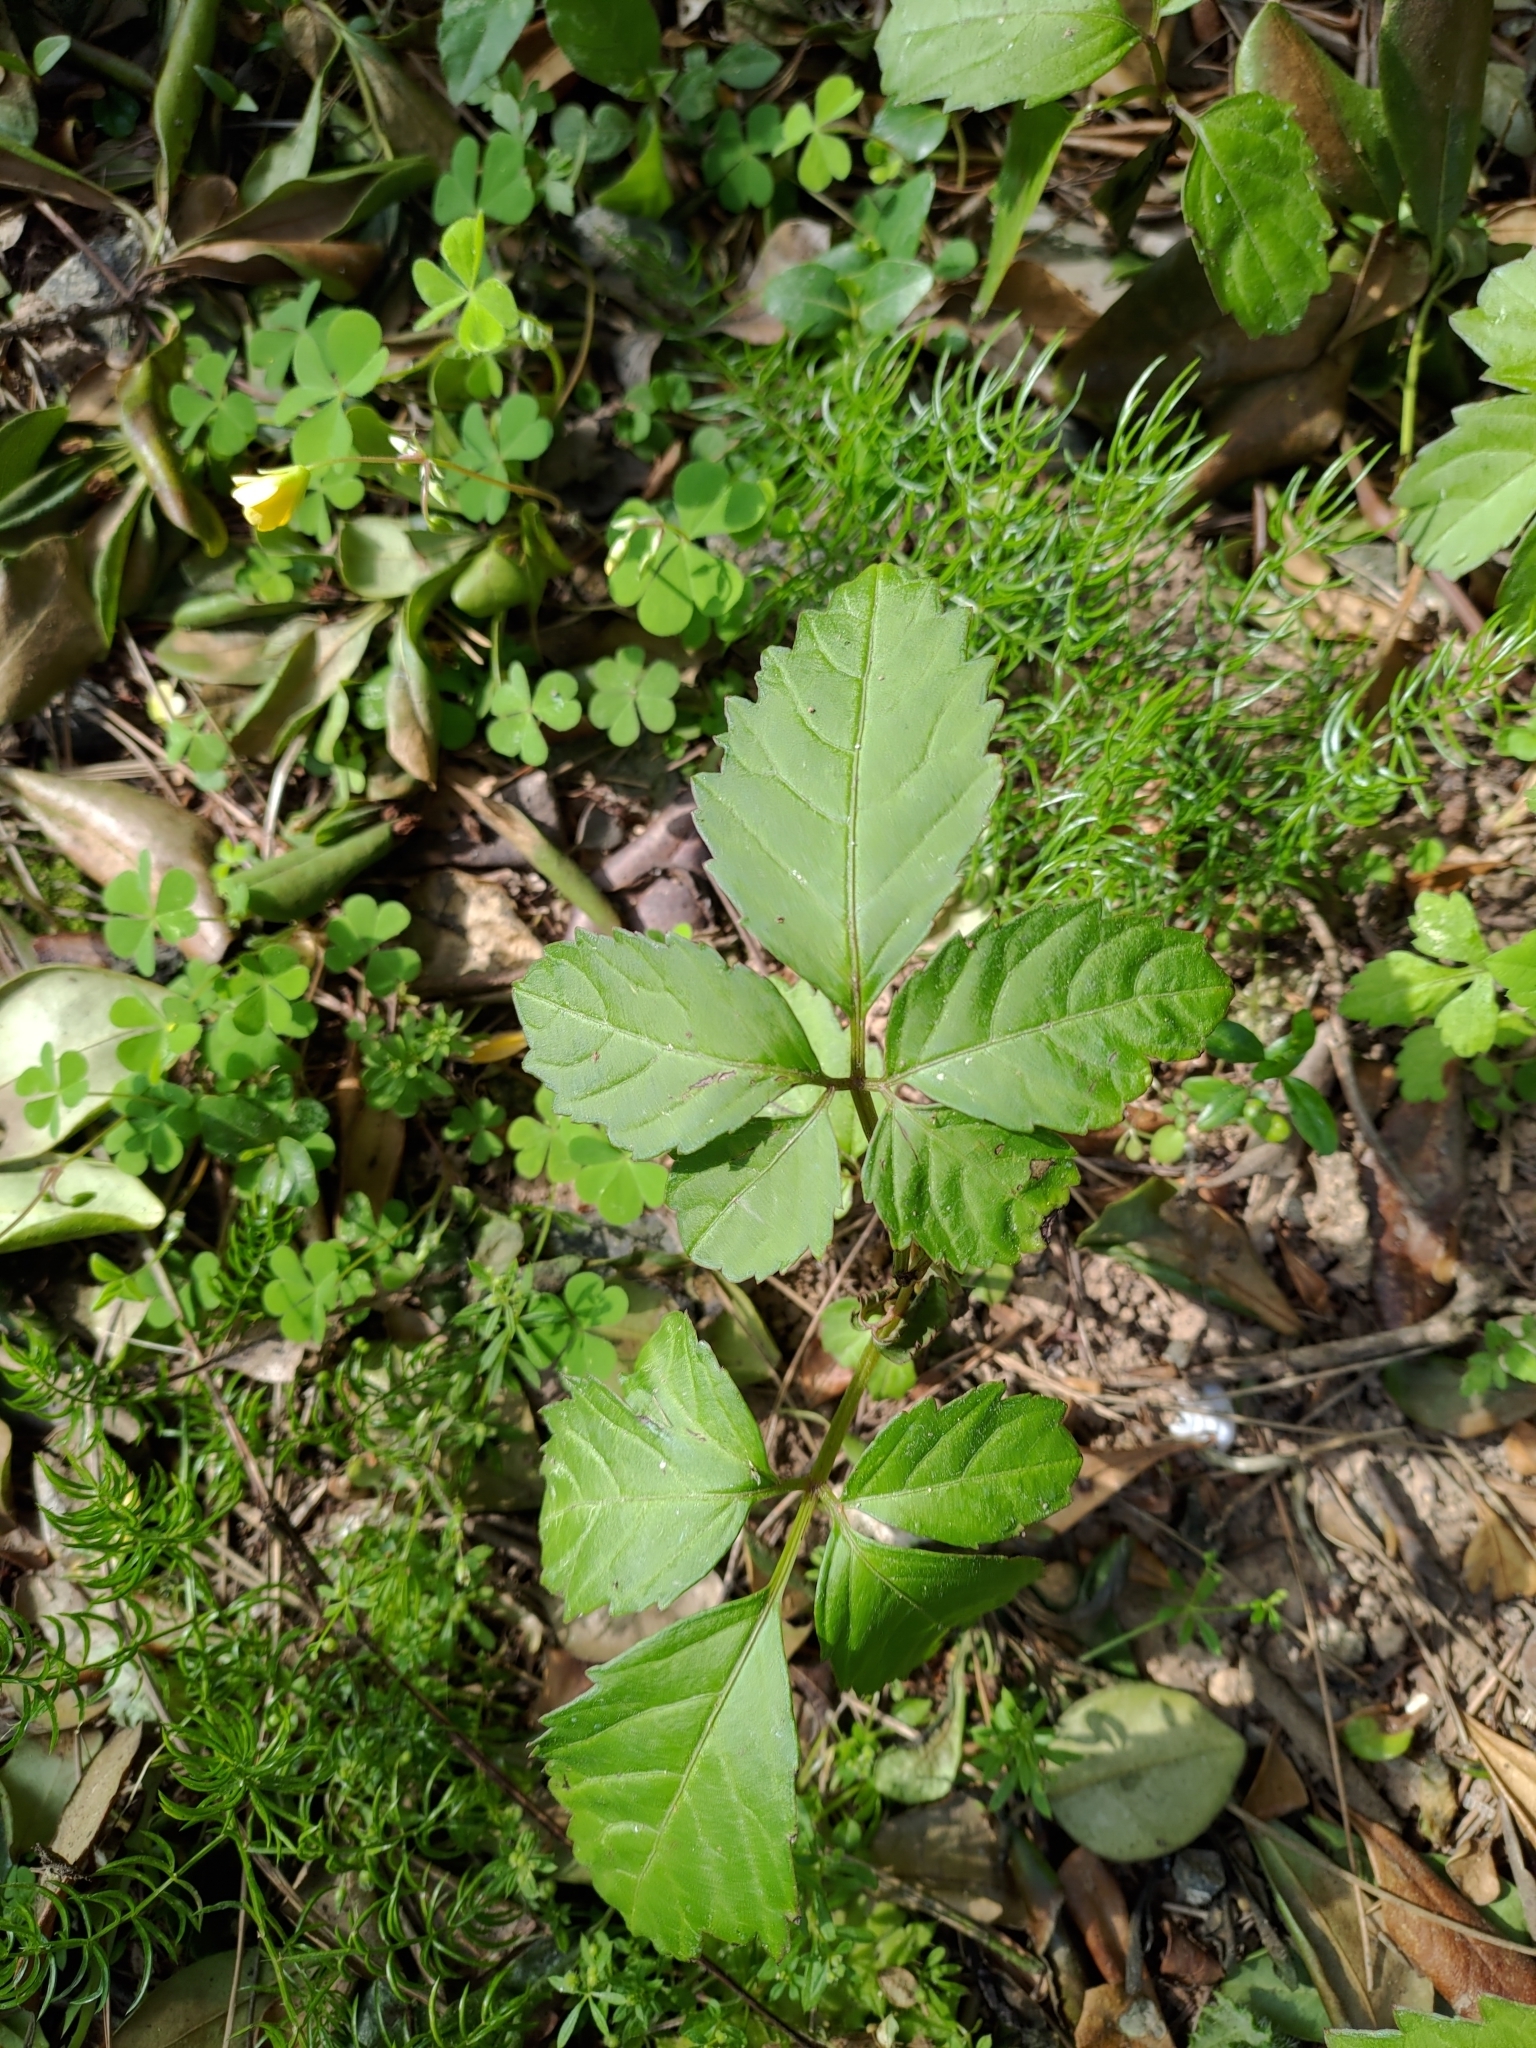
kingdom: Plantae
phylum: Tracheophyta
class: Magnoliopsida
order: Vitales
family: Vitaceae
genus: Causonis
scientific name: Causonis japonica
